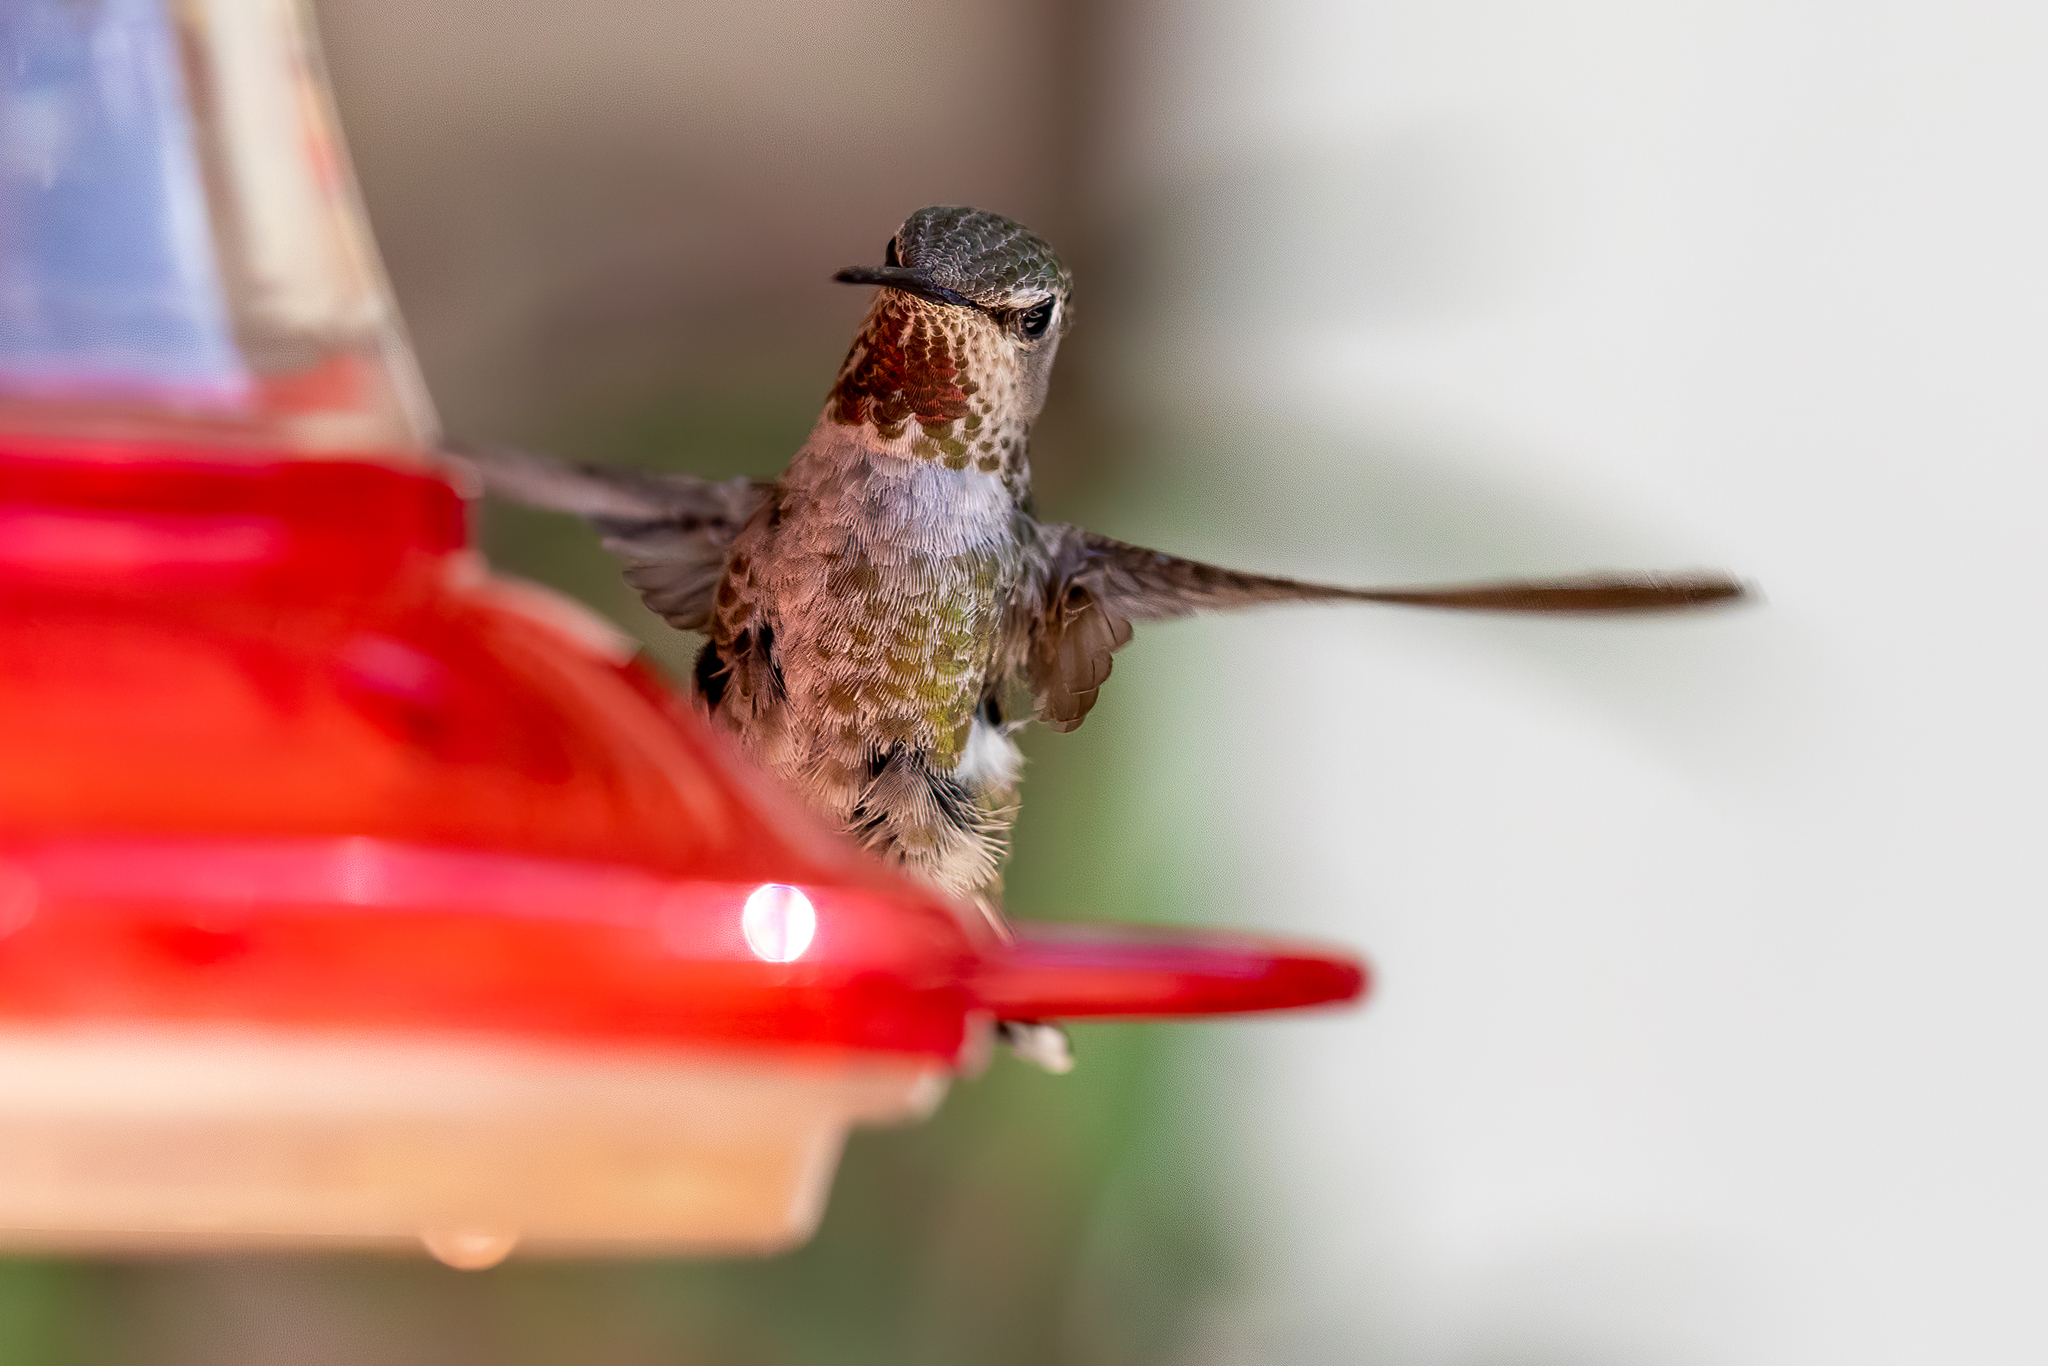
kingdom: Animalia
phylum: Chordata
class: Aves
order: Apodiformes
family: Trochilidae
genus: Calypte
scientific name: Calypte anna
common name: Anna's hummingbird
